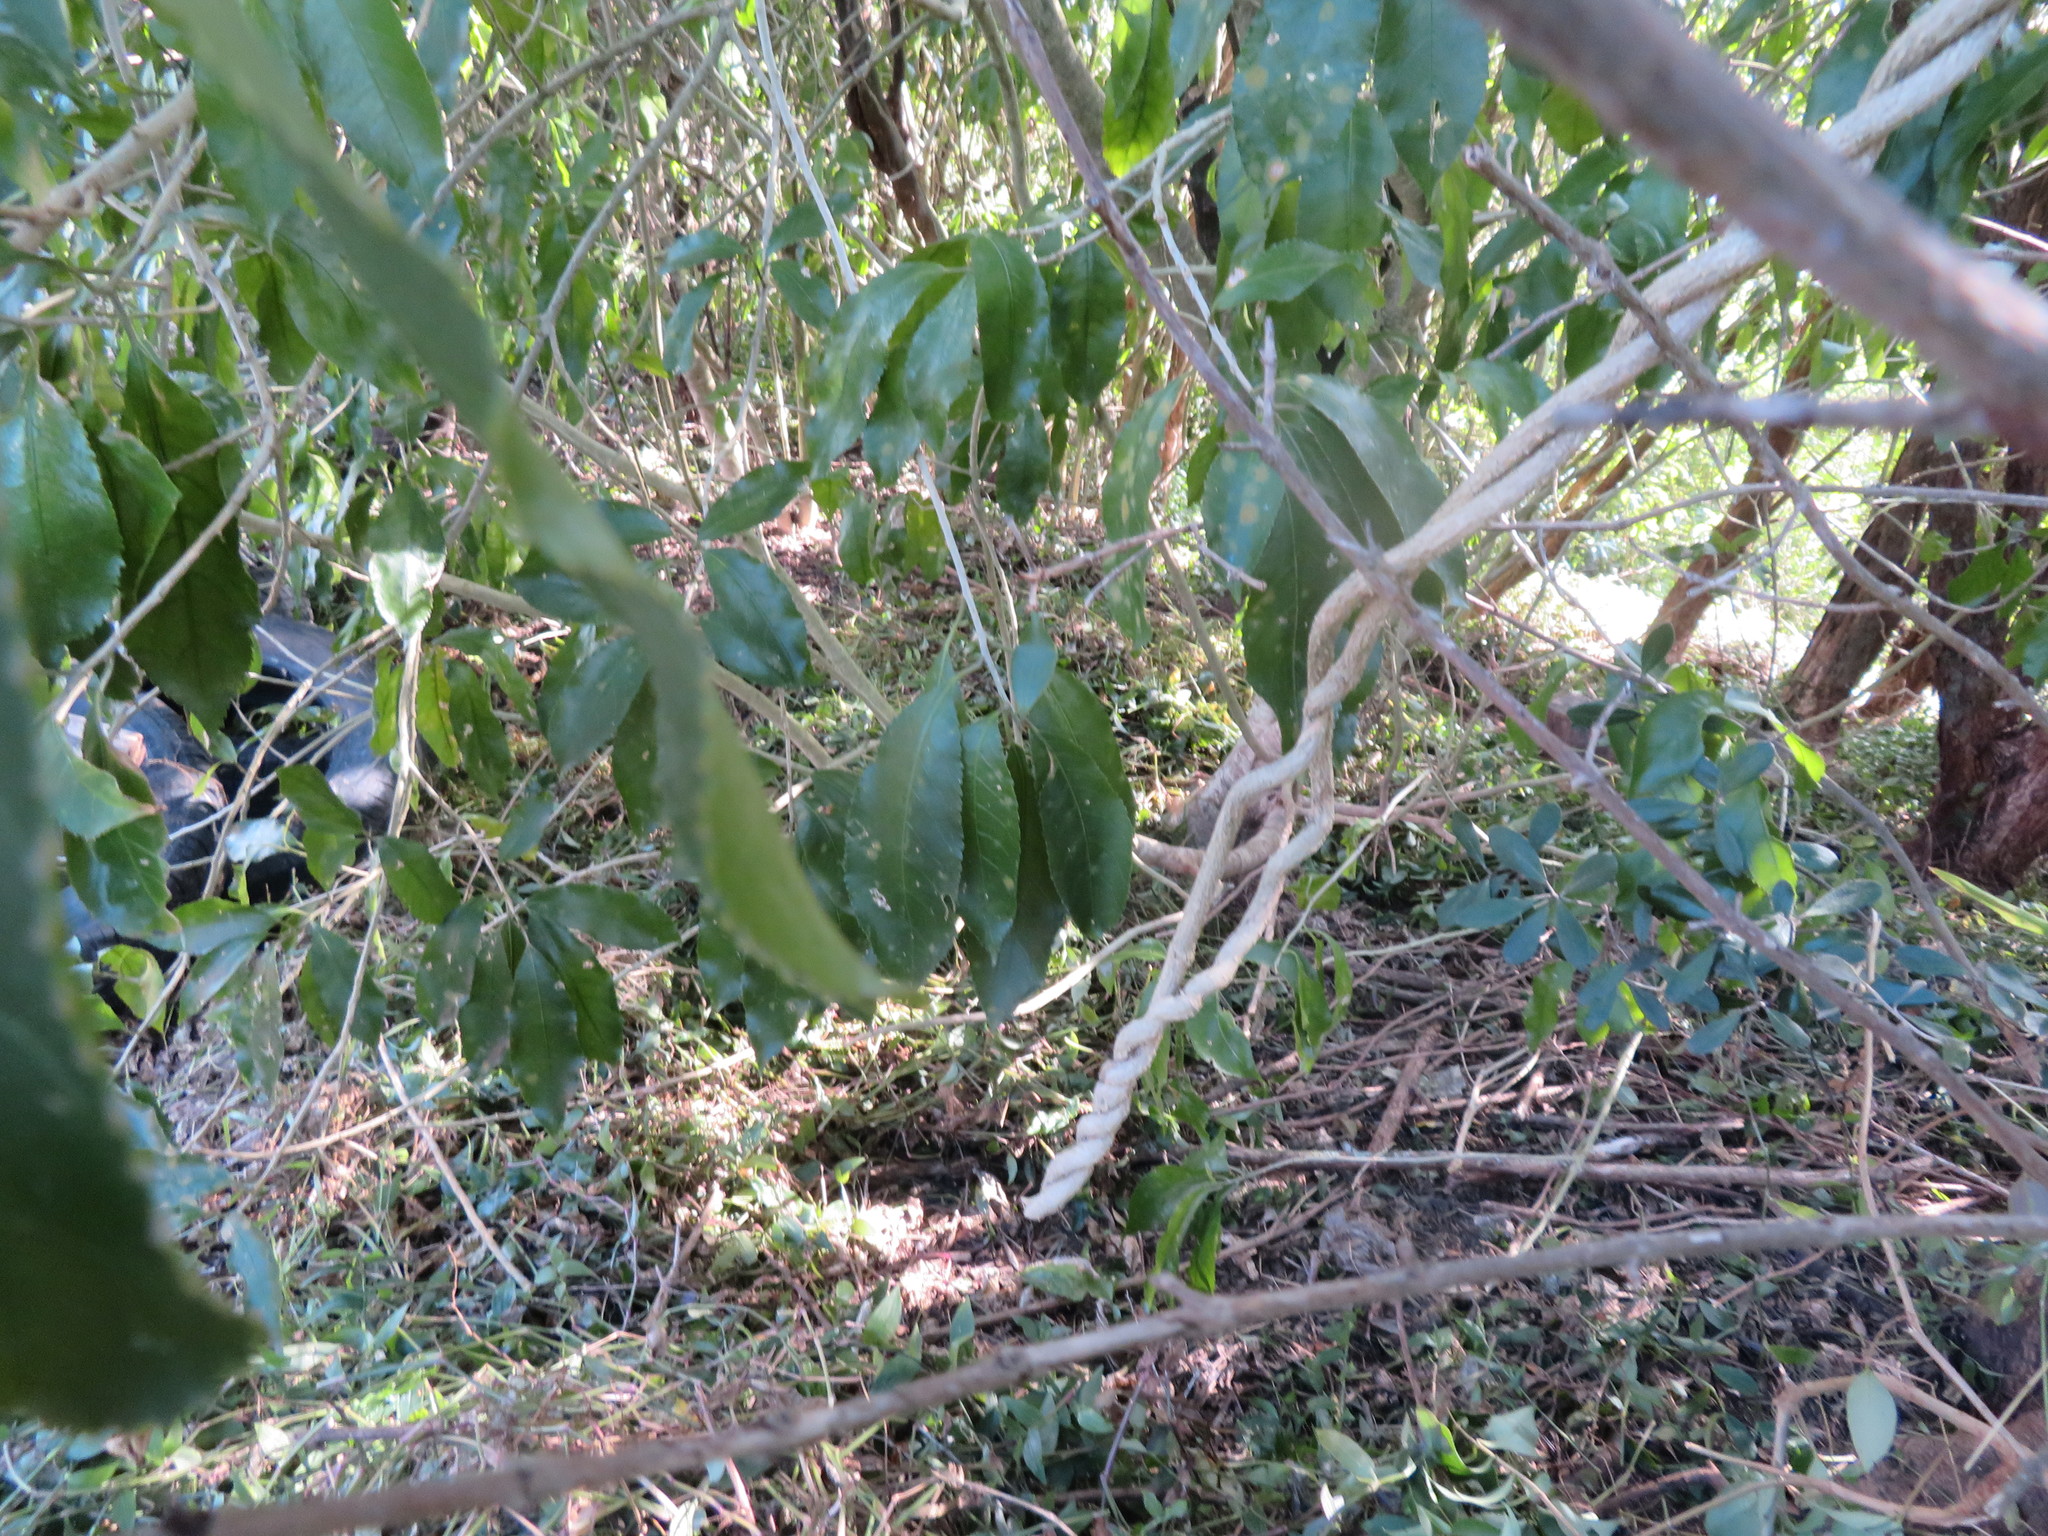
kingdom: Plantae
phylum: Tracheophyta
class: Magnoliopsida
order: Gentianales
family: Apocynaceae
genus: Araujia
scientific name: Araujia sericifera
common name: White bladderflower
